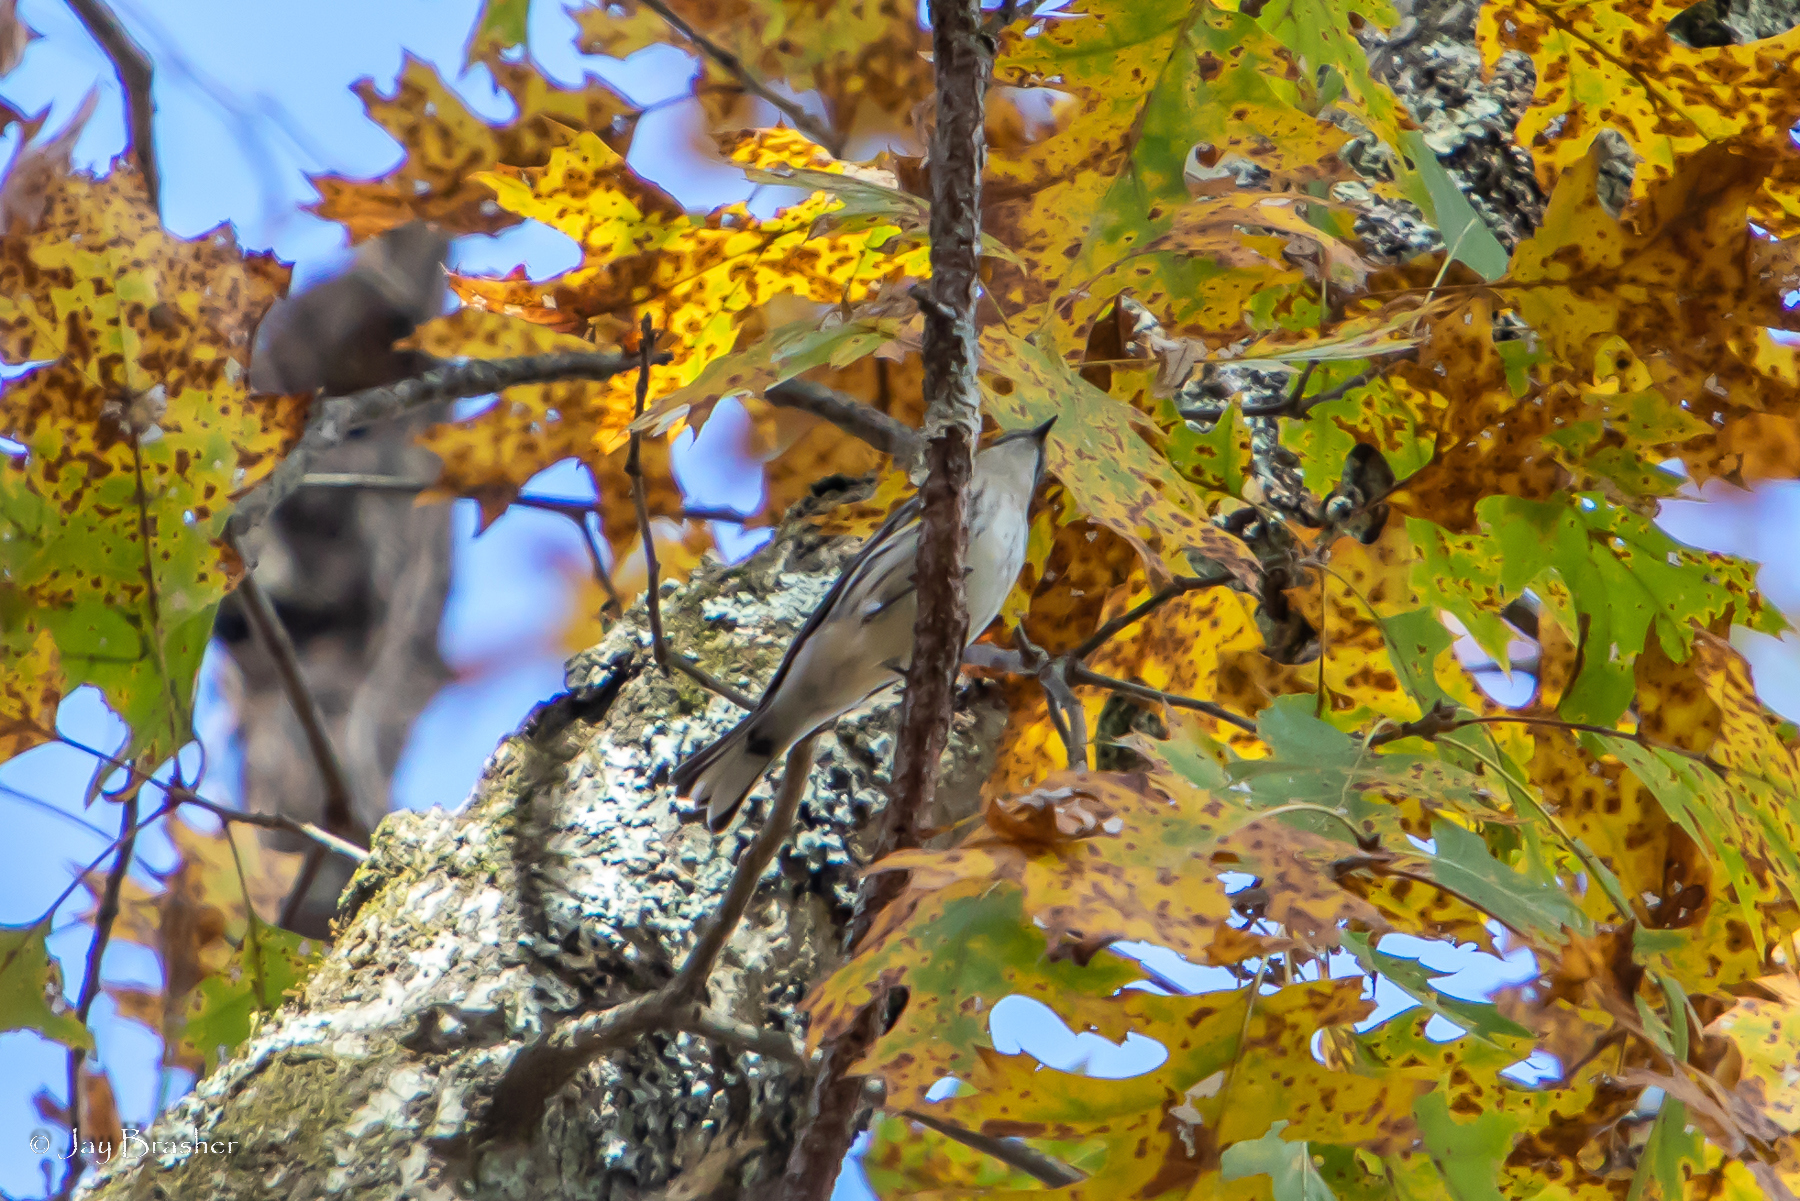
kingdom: Animalia
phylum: Chordata
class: Aves
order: Passeriformes
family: Parulidae
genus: Setophaga
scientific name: Setophaga coronata
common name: Myrtle warbler
